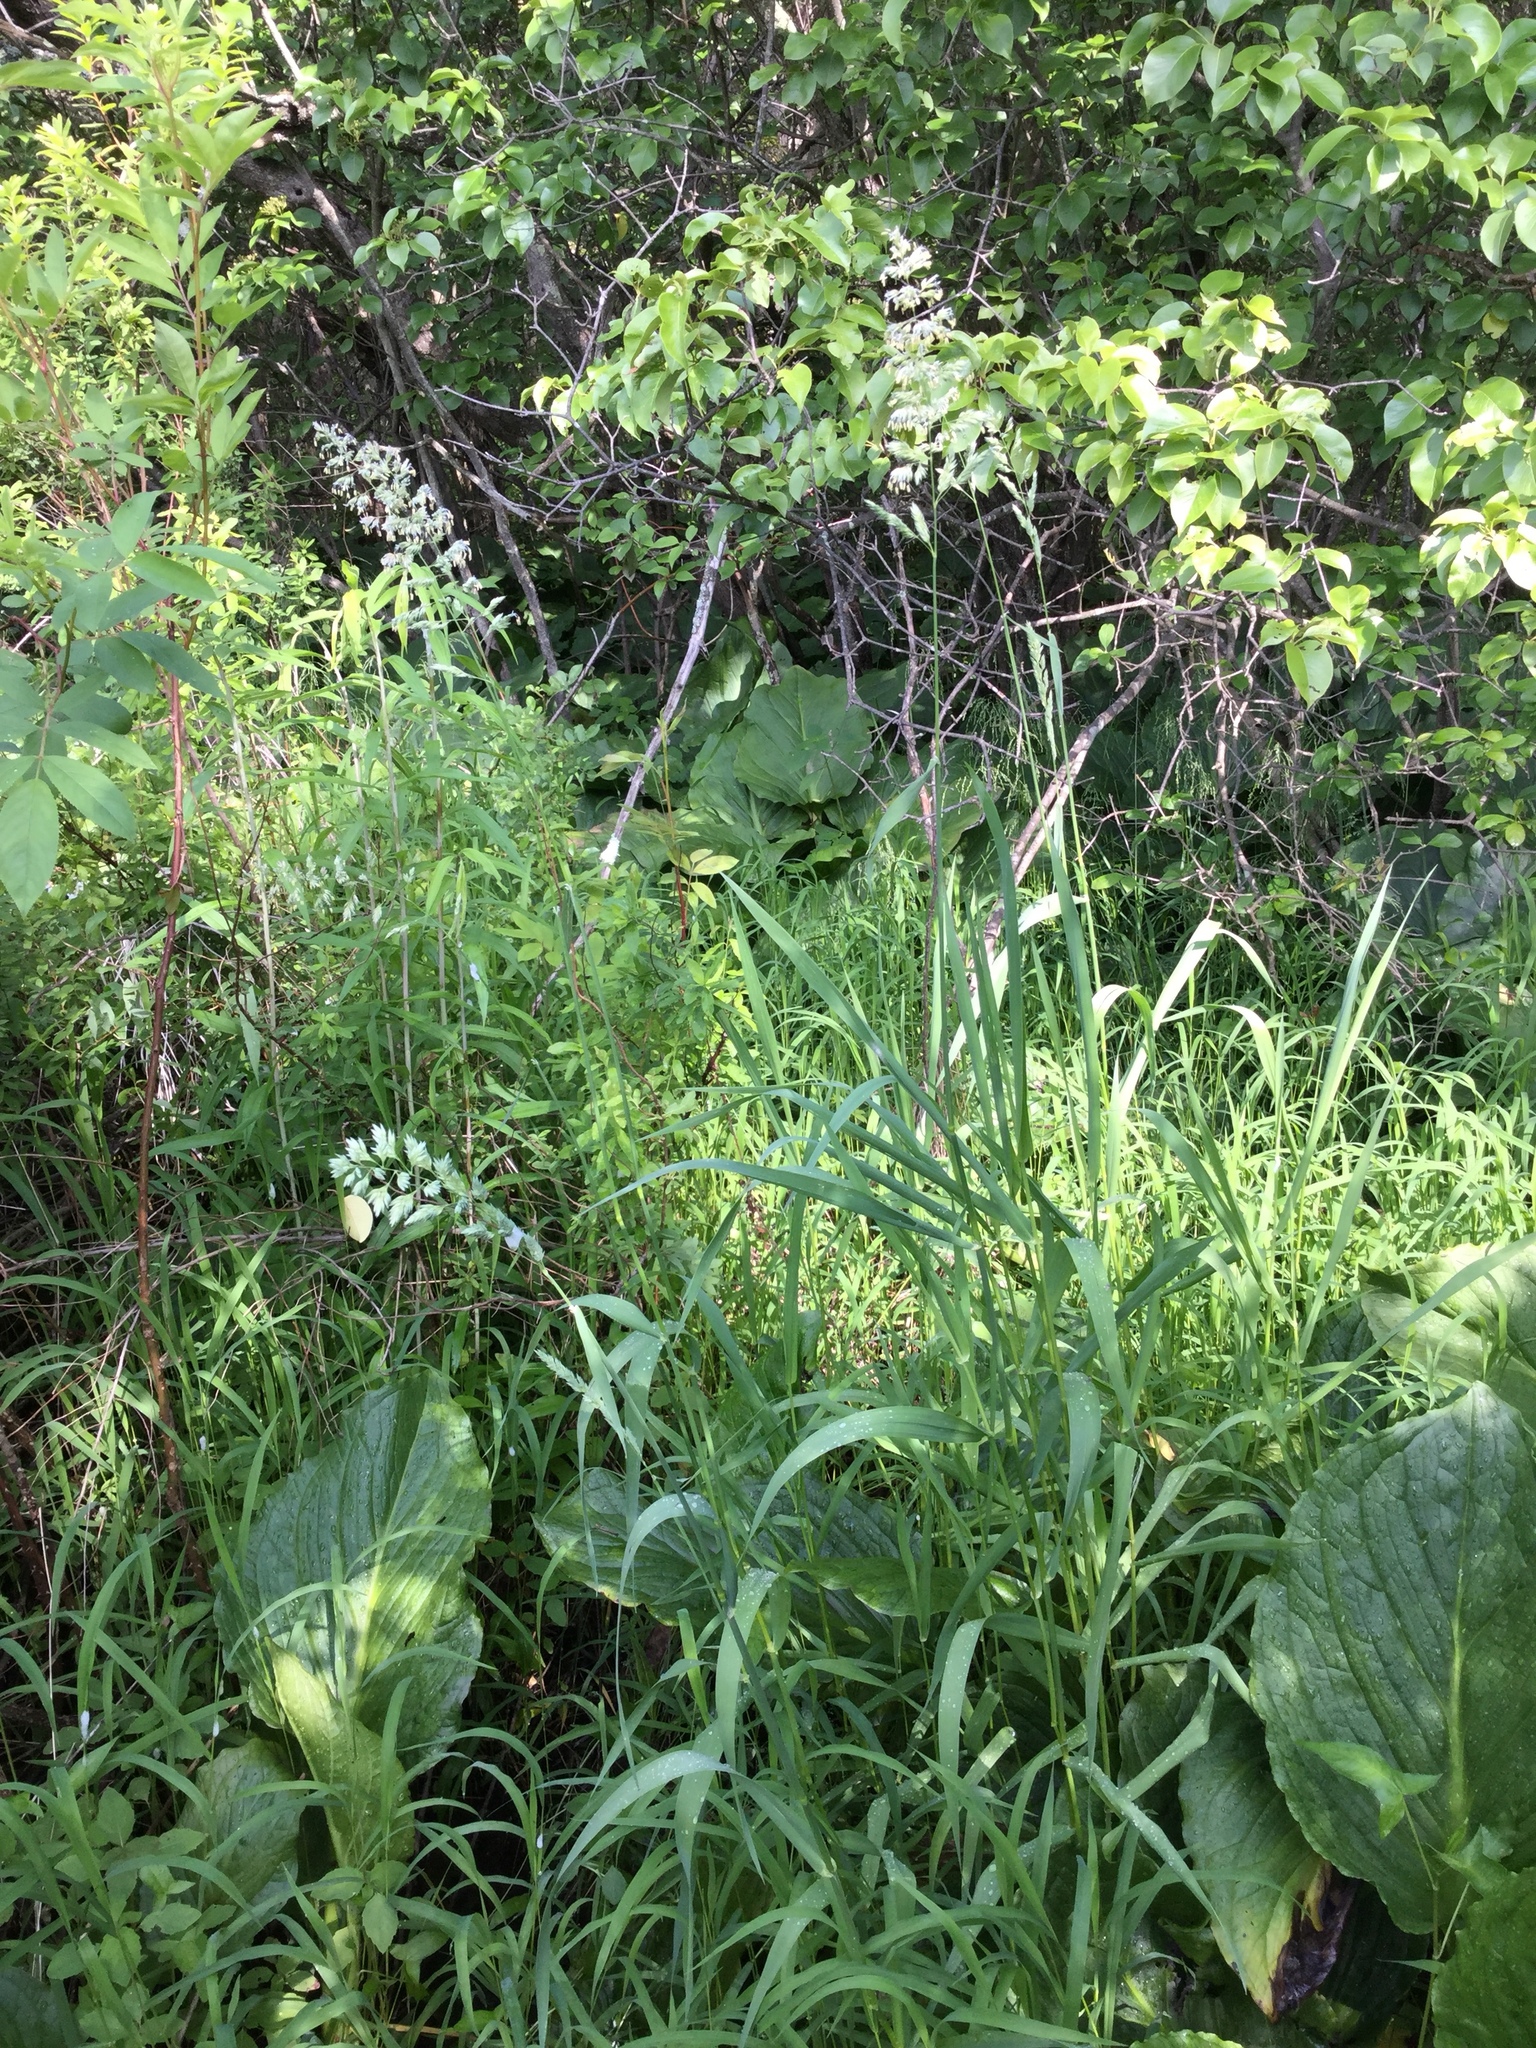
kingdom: Plantae
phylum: Tracheophyta
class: Liliopsida
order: Poales
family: Poaceae
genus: Phalaris
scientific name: Phalaris arundinacea
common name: Reed canary-grass
